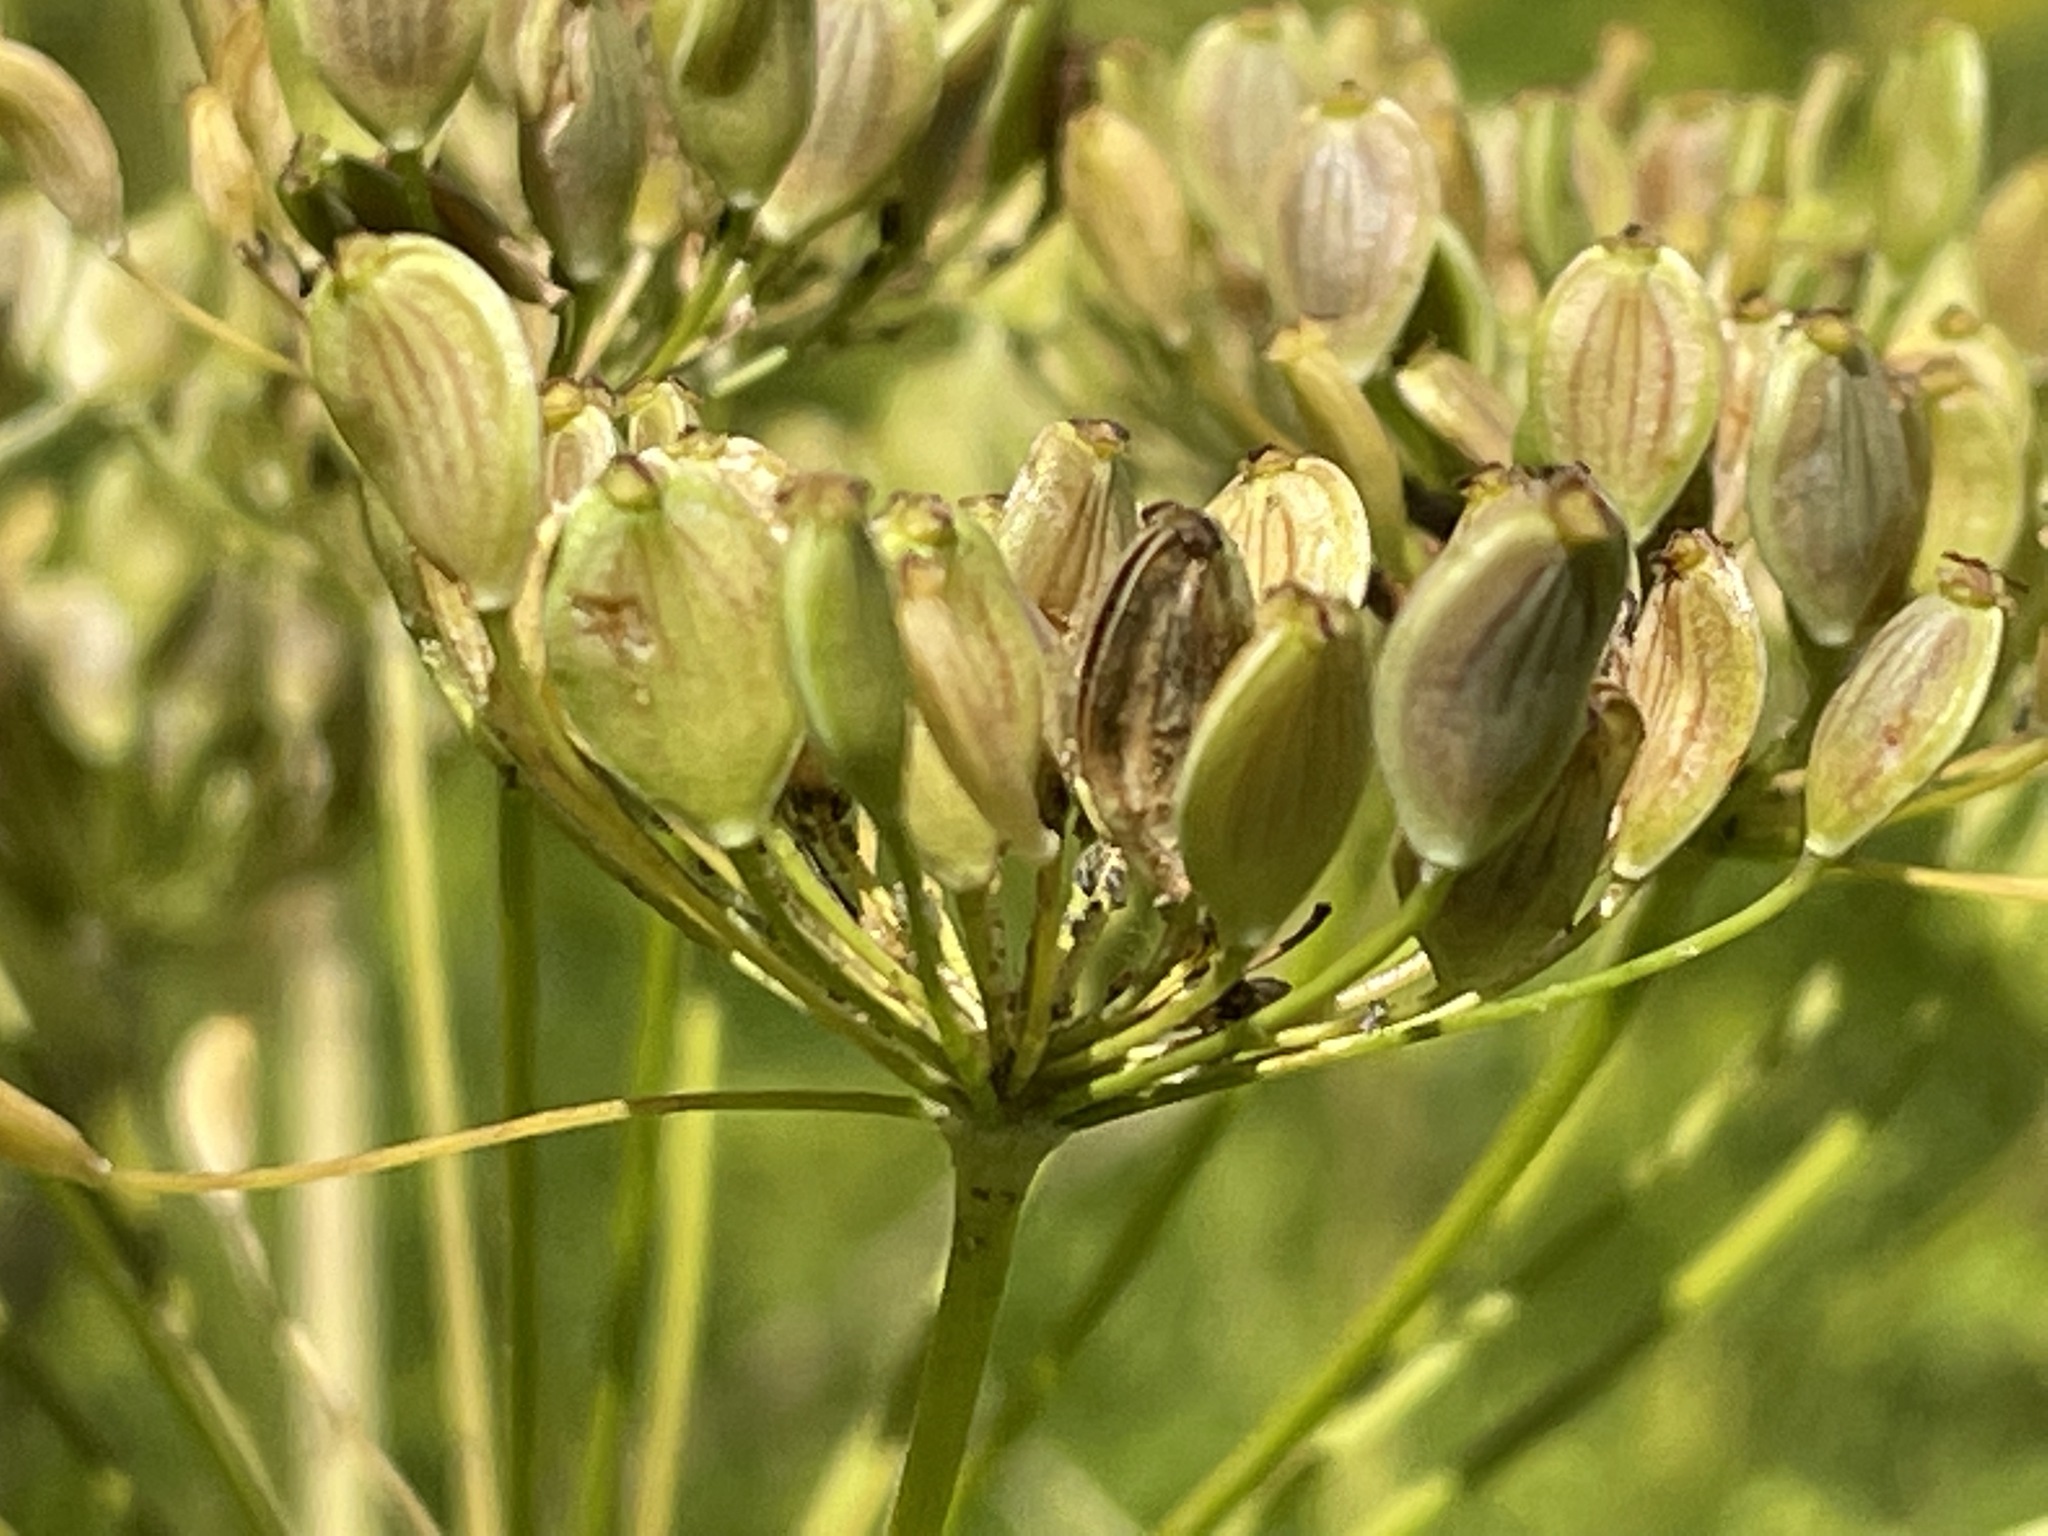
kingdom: Plantae
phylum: Tracheophyta
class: Magnoliopsida
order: Apiales
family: Apiaceae
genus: Pastinaca
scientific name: Pastinaca sativa
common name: Wild parsnip
